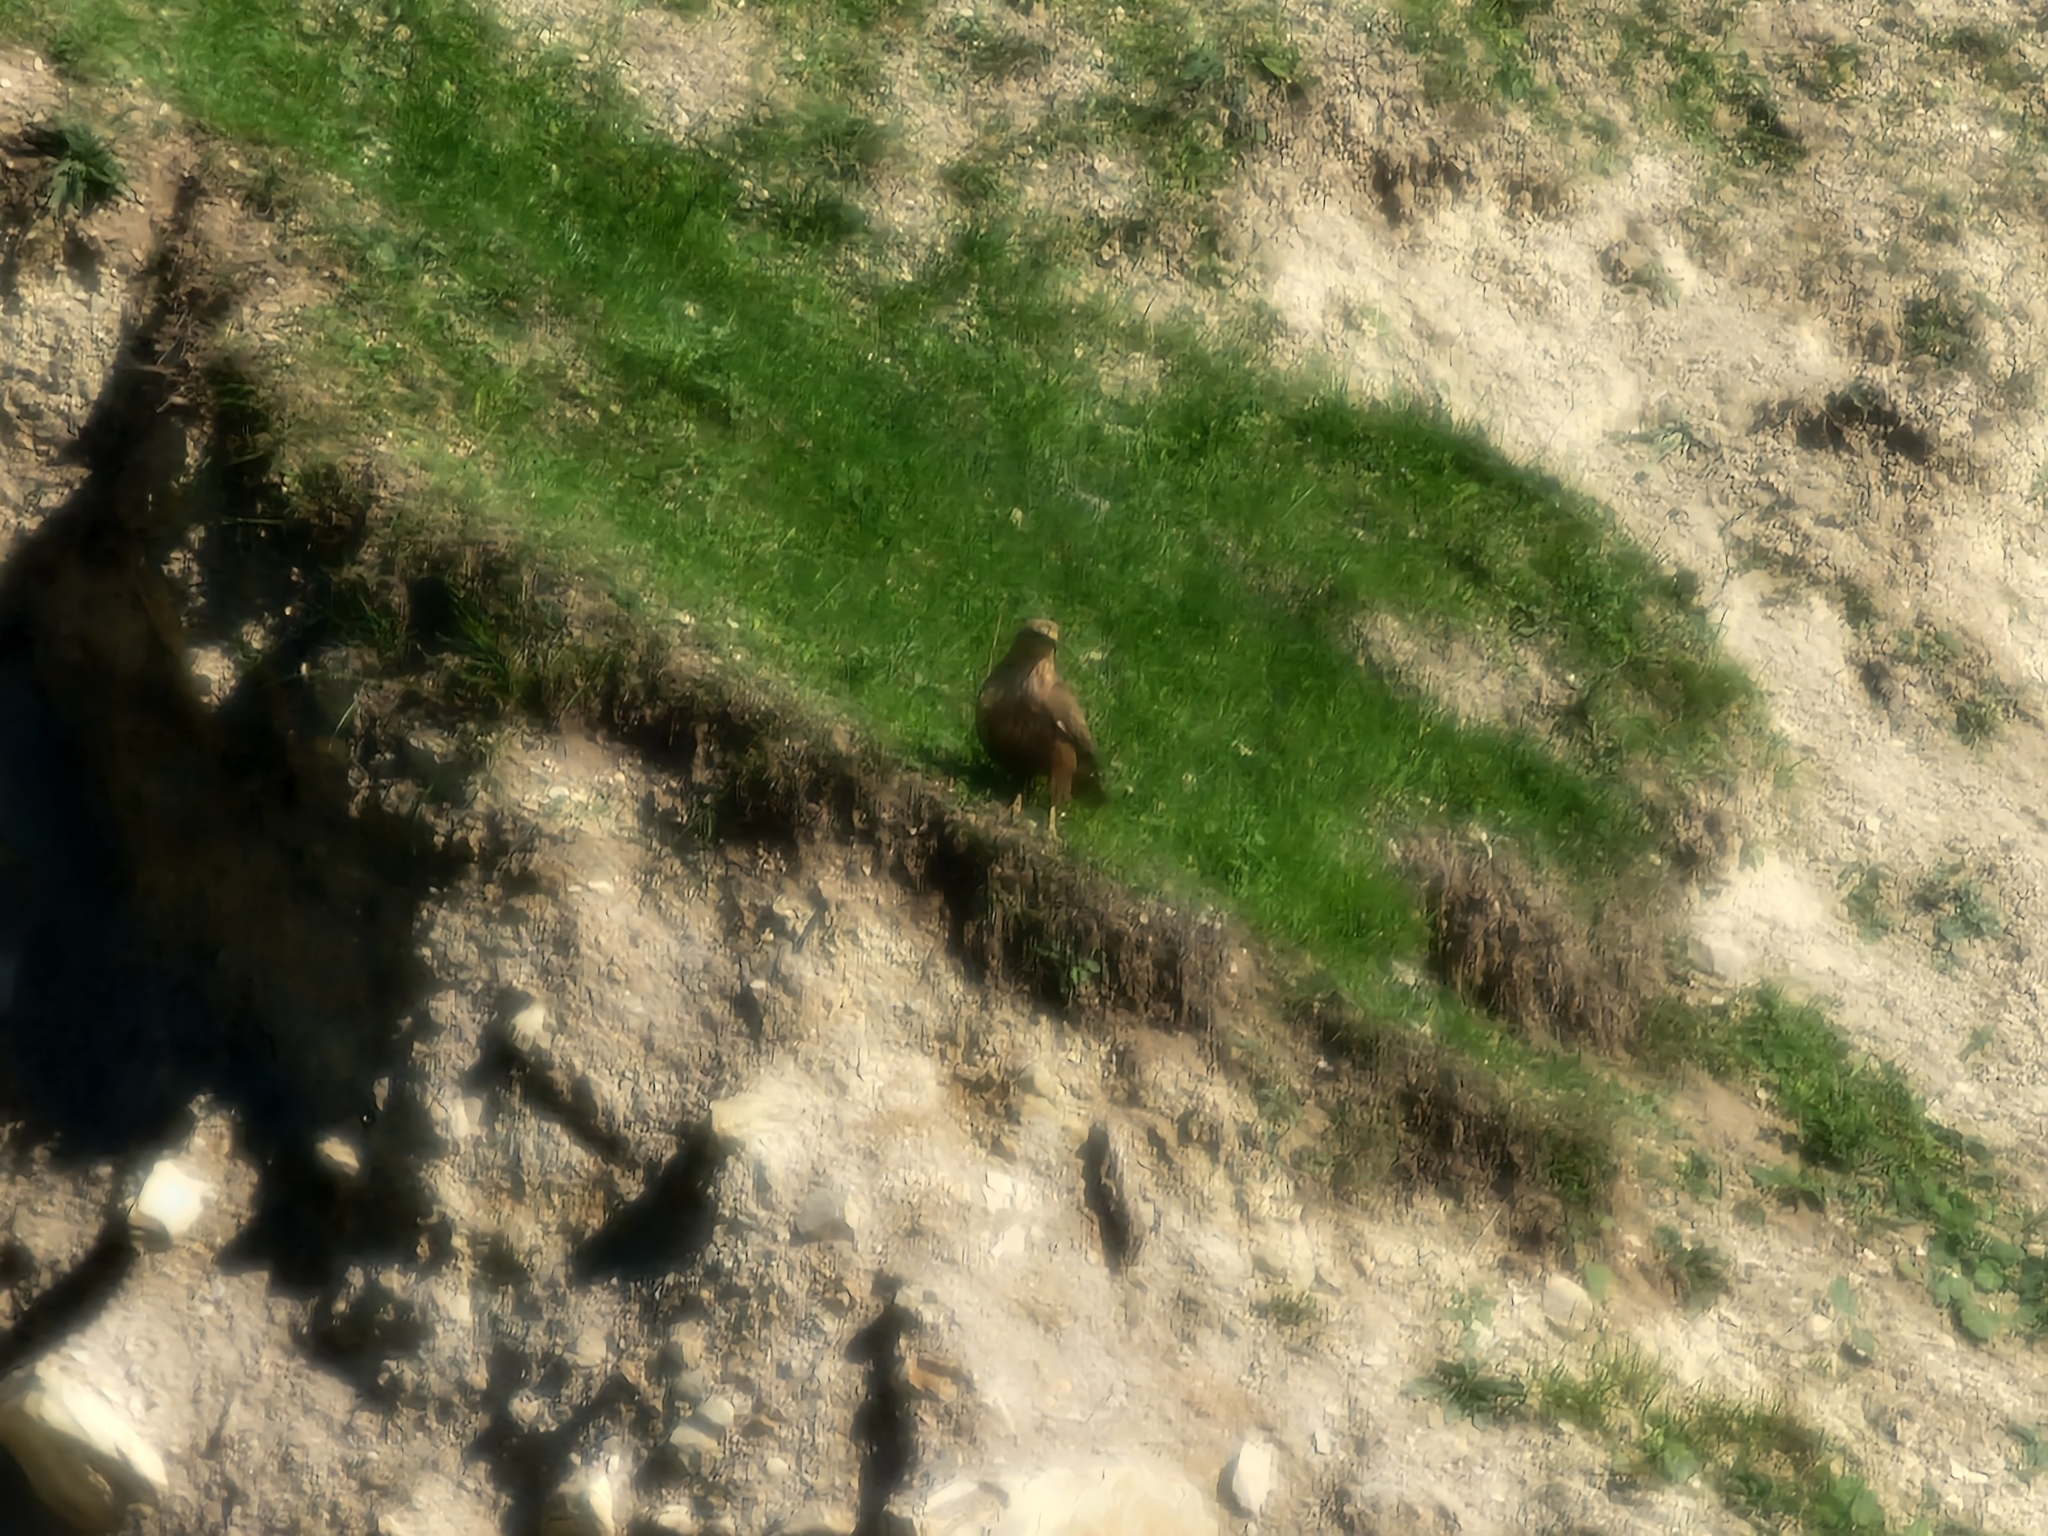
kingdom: Animalia
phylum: Chordata
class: Aves
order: Accipitriformes
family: Accipitridae
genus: Buteo
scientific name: Buteo rufinus
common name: Long-legged buzzard
